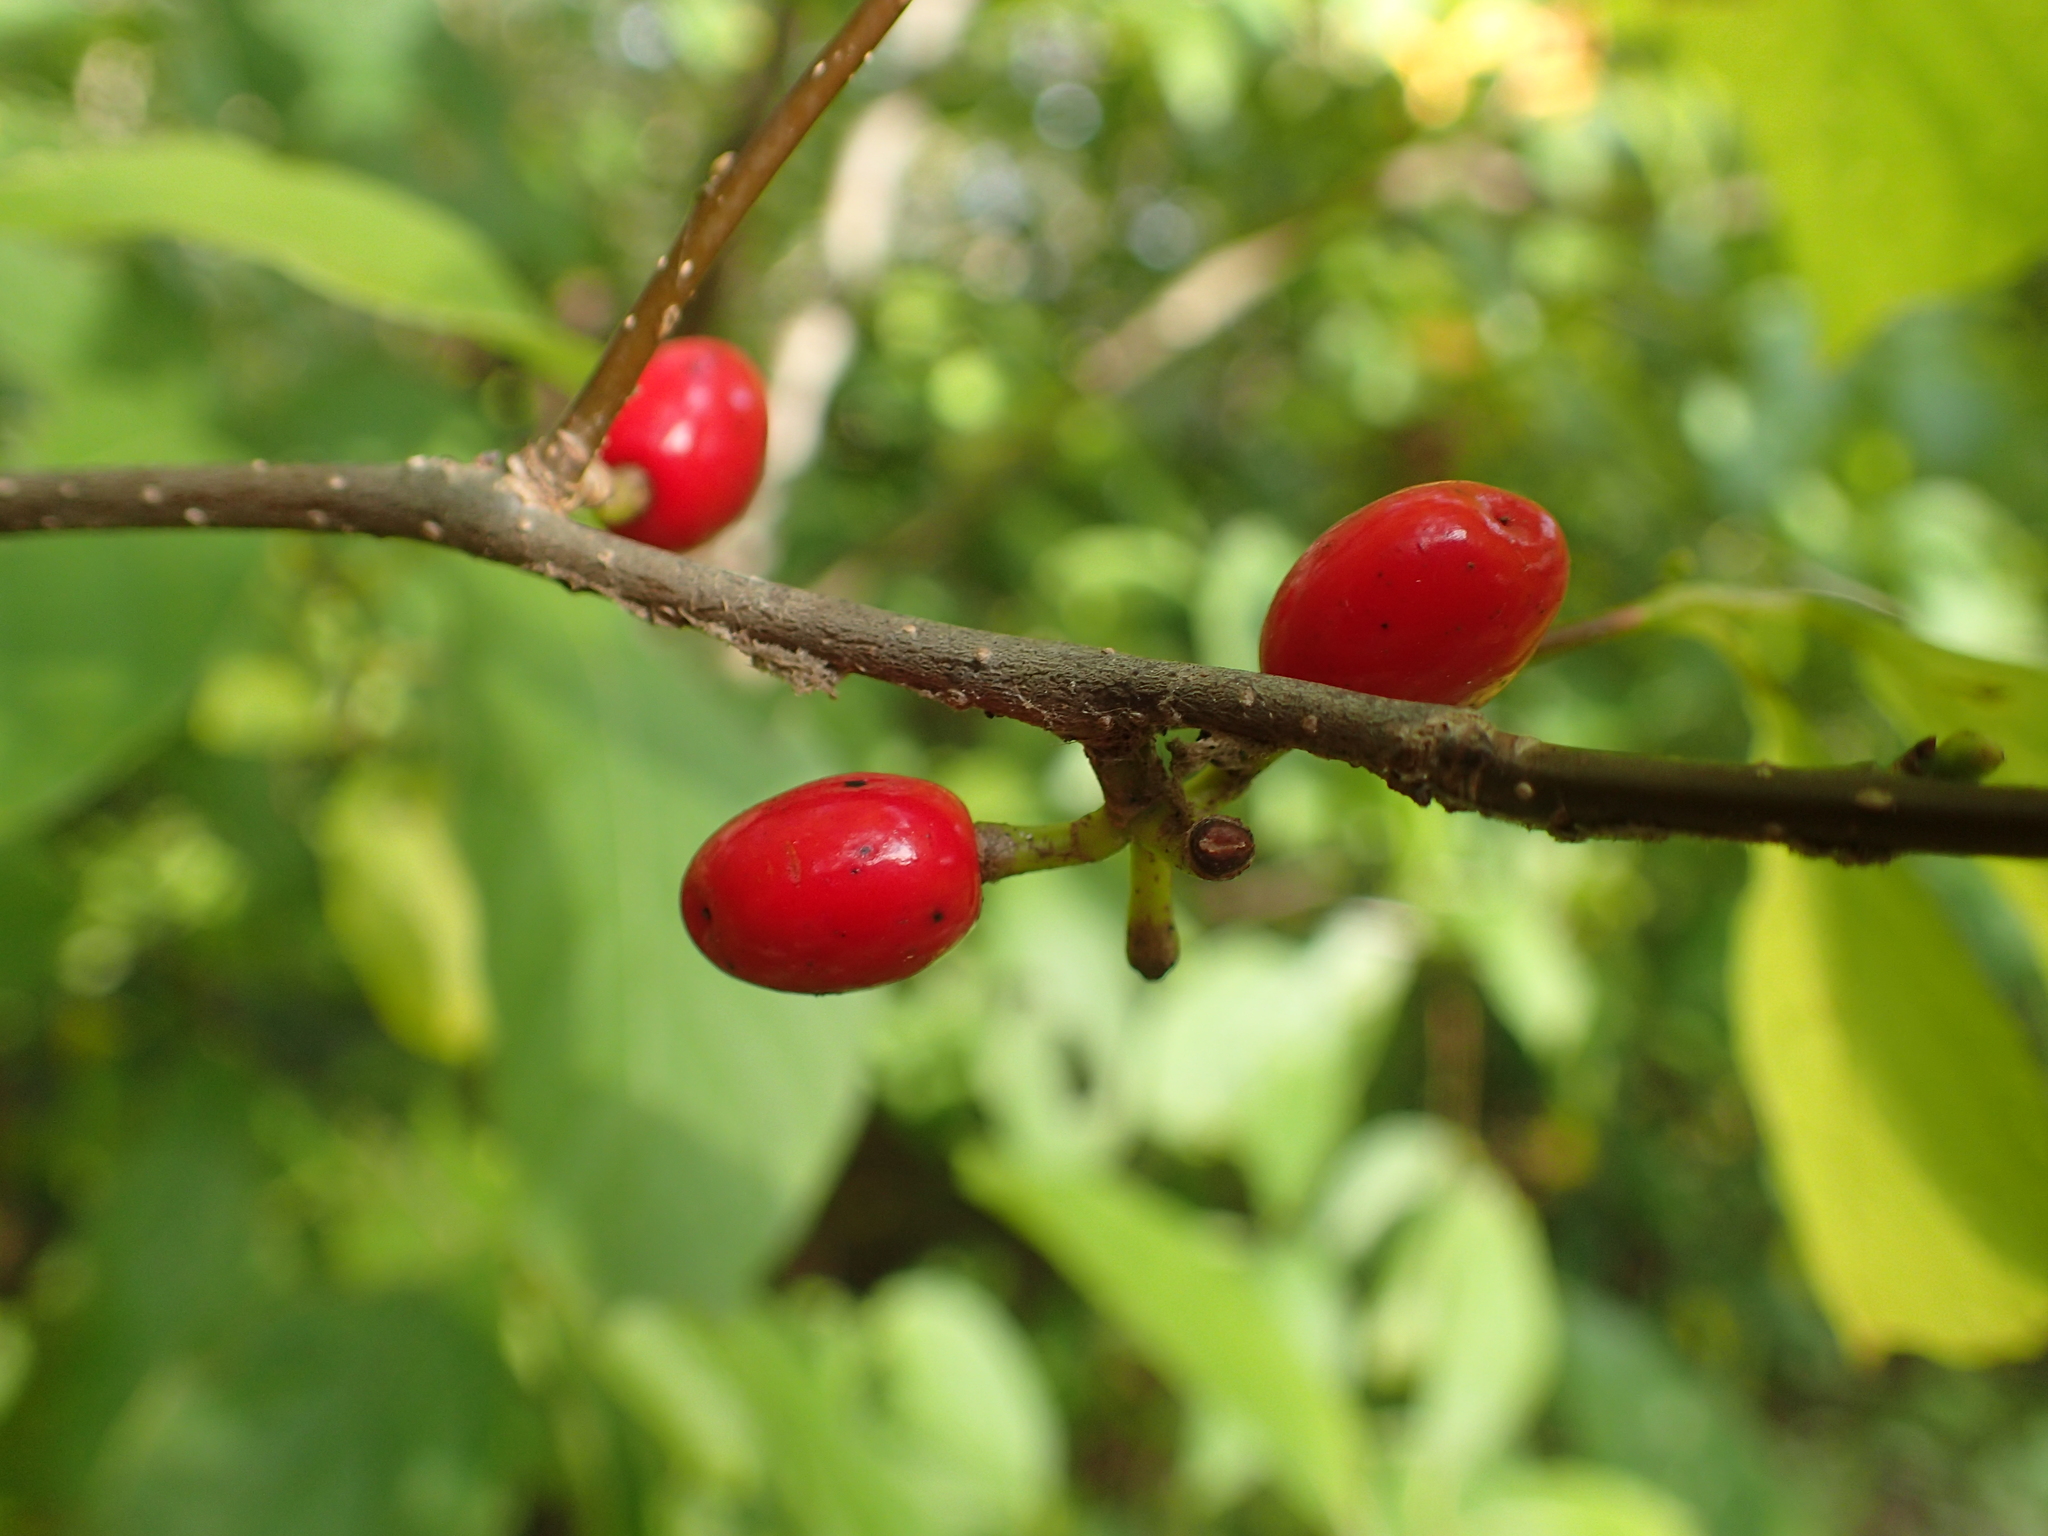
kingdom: Plantae
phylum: Tracheophyta
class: Magnoliopsida
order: Laurales
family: Lauraceae
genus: Lindera
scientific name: Lindera benzoin
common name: Spicebush
